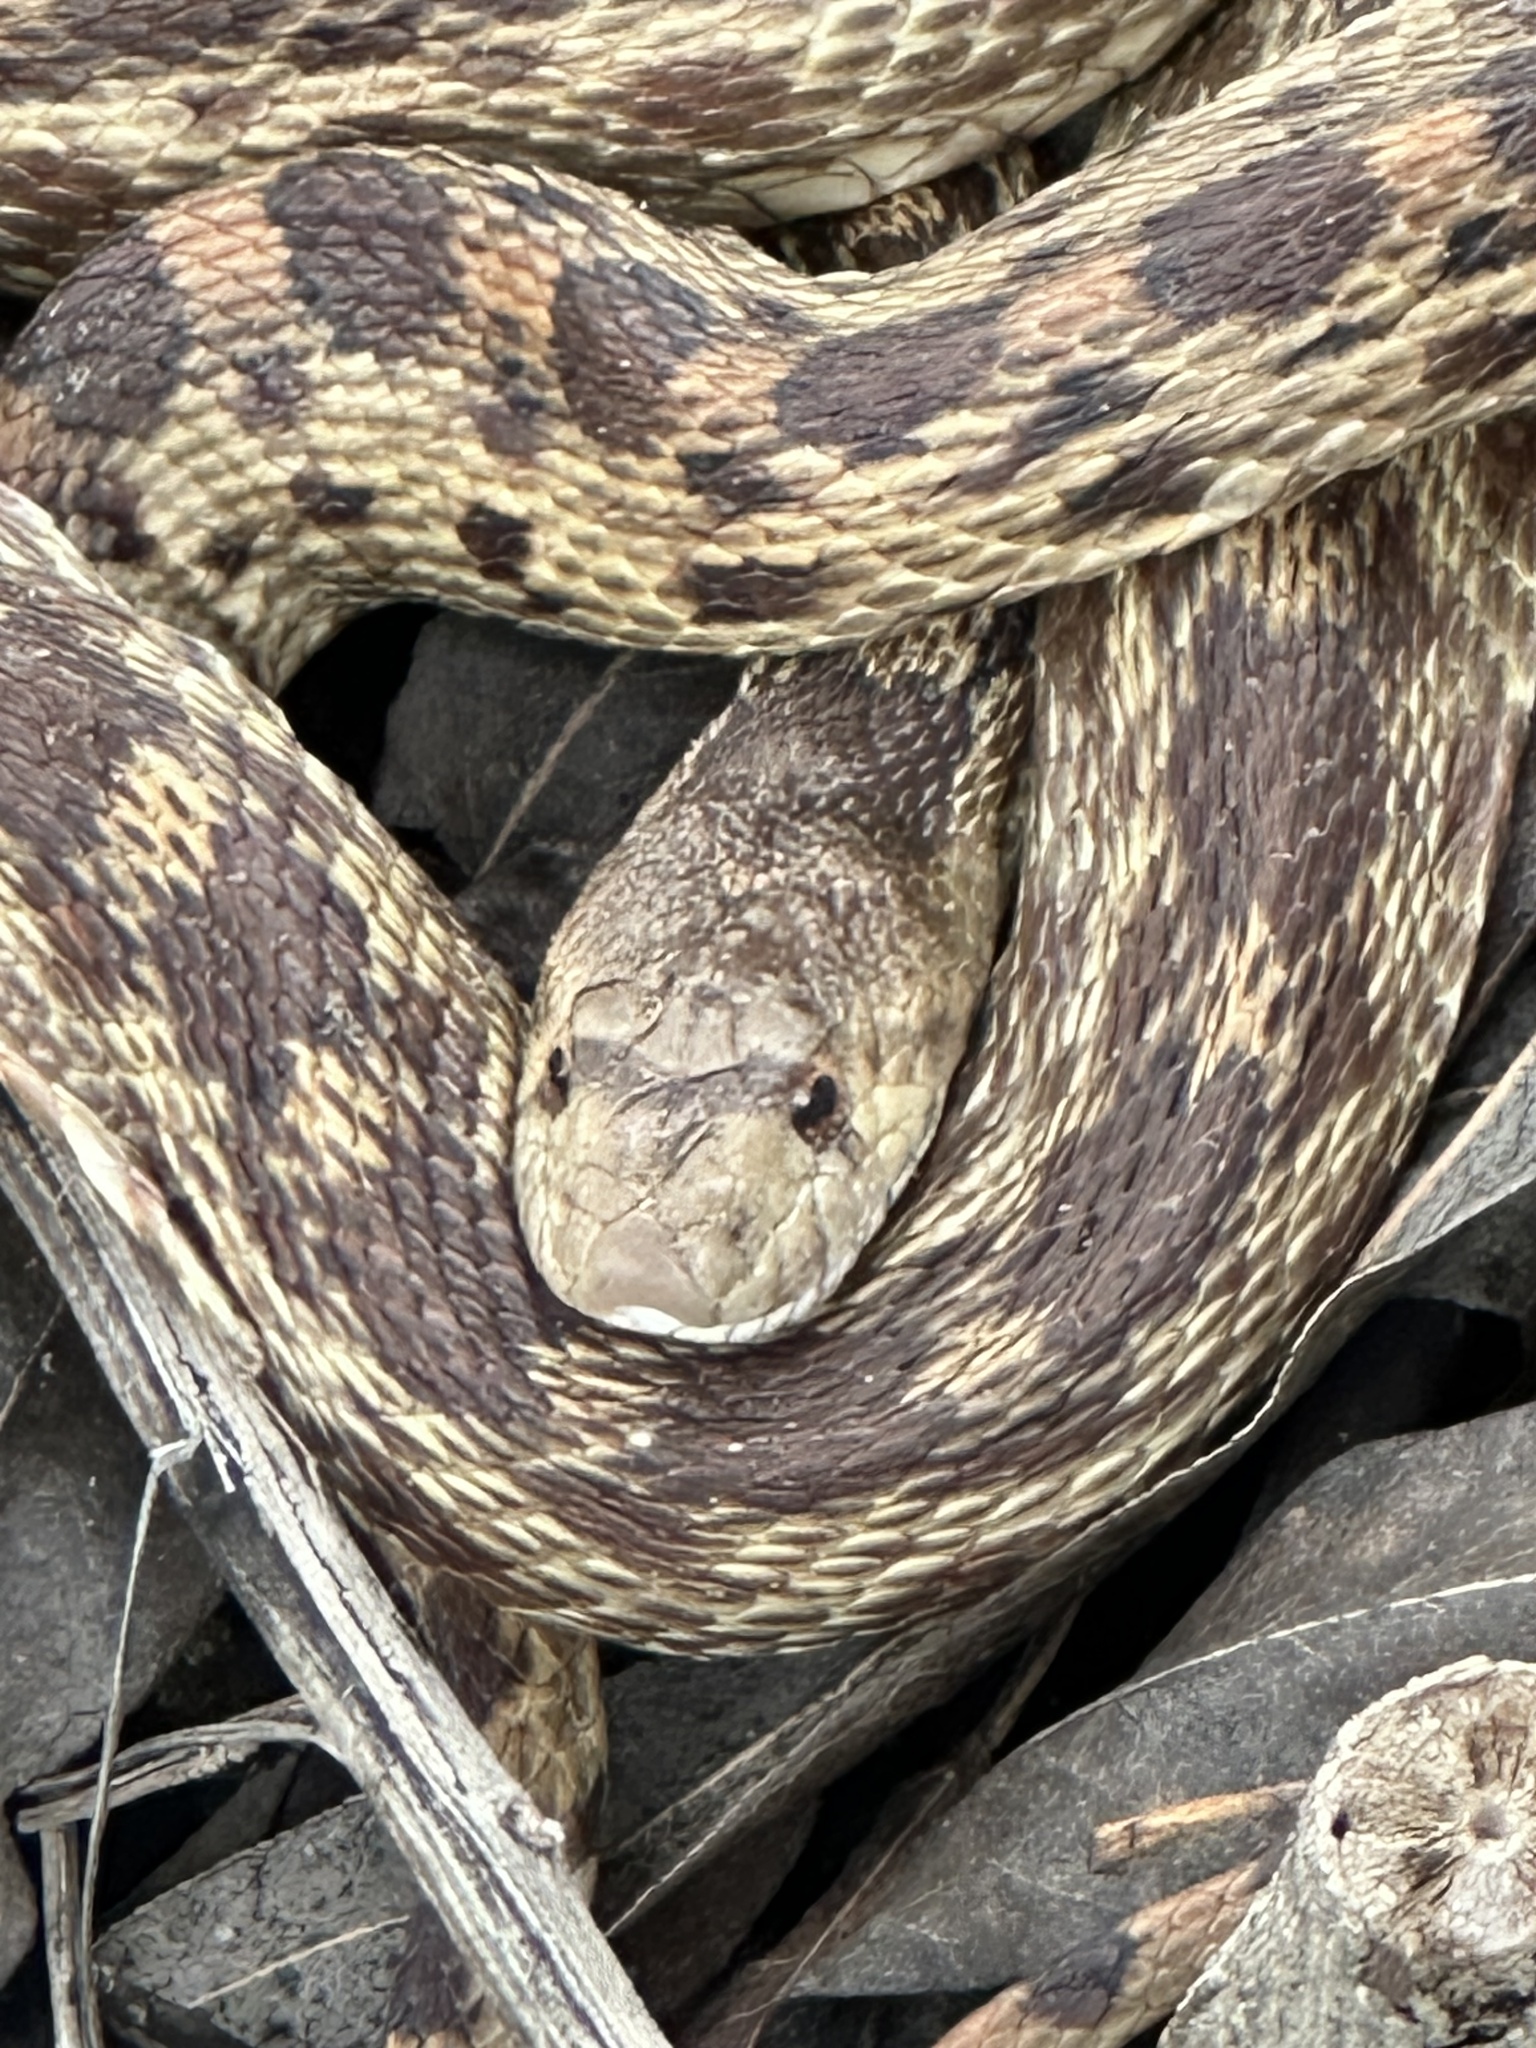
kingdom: Animalia
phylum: Chordata
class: Squamata
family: Colubridae
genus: Pituophis
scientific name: Pituophis catenifer
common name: Gopher snake
